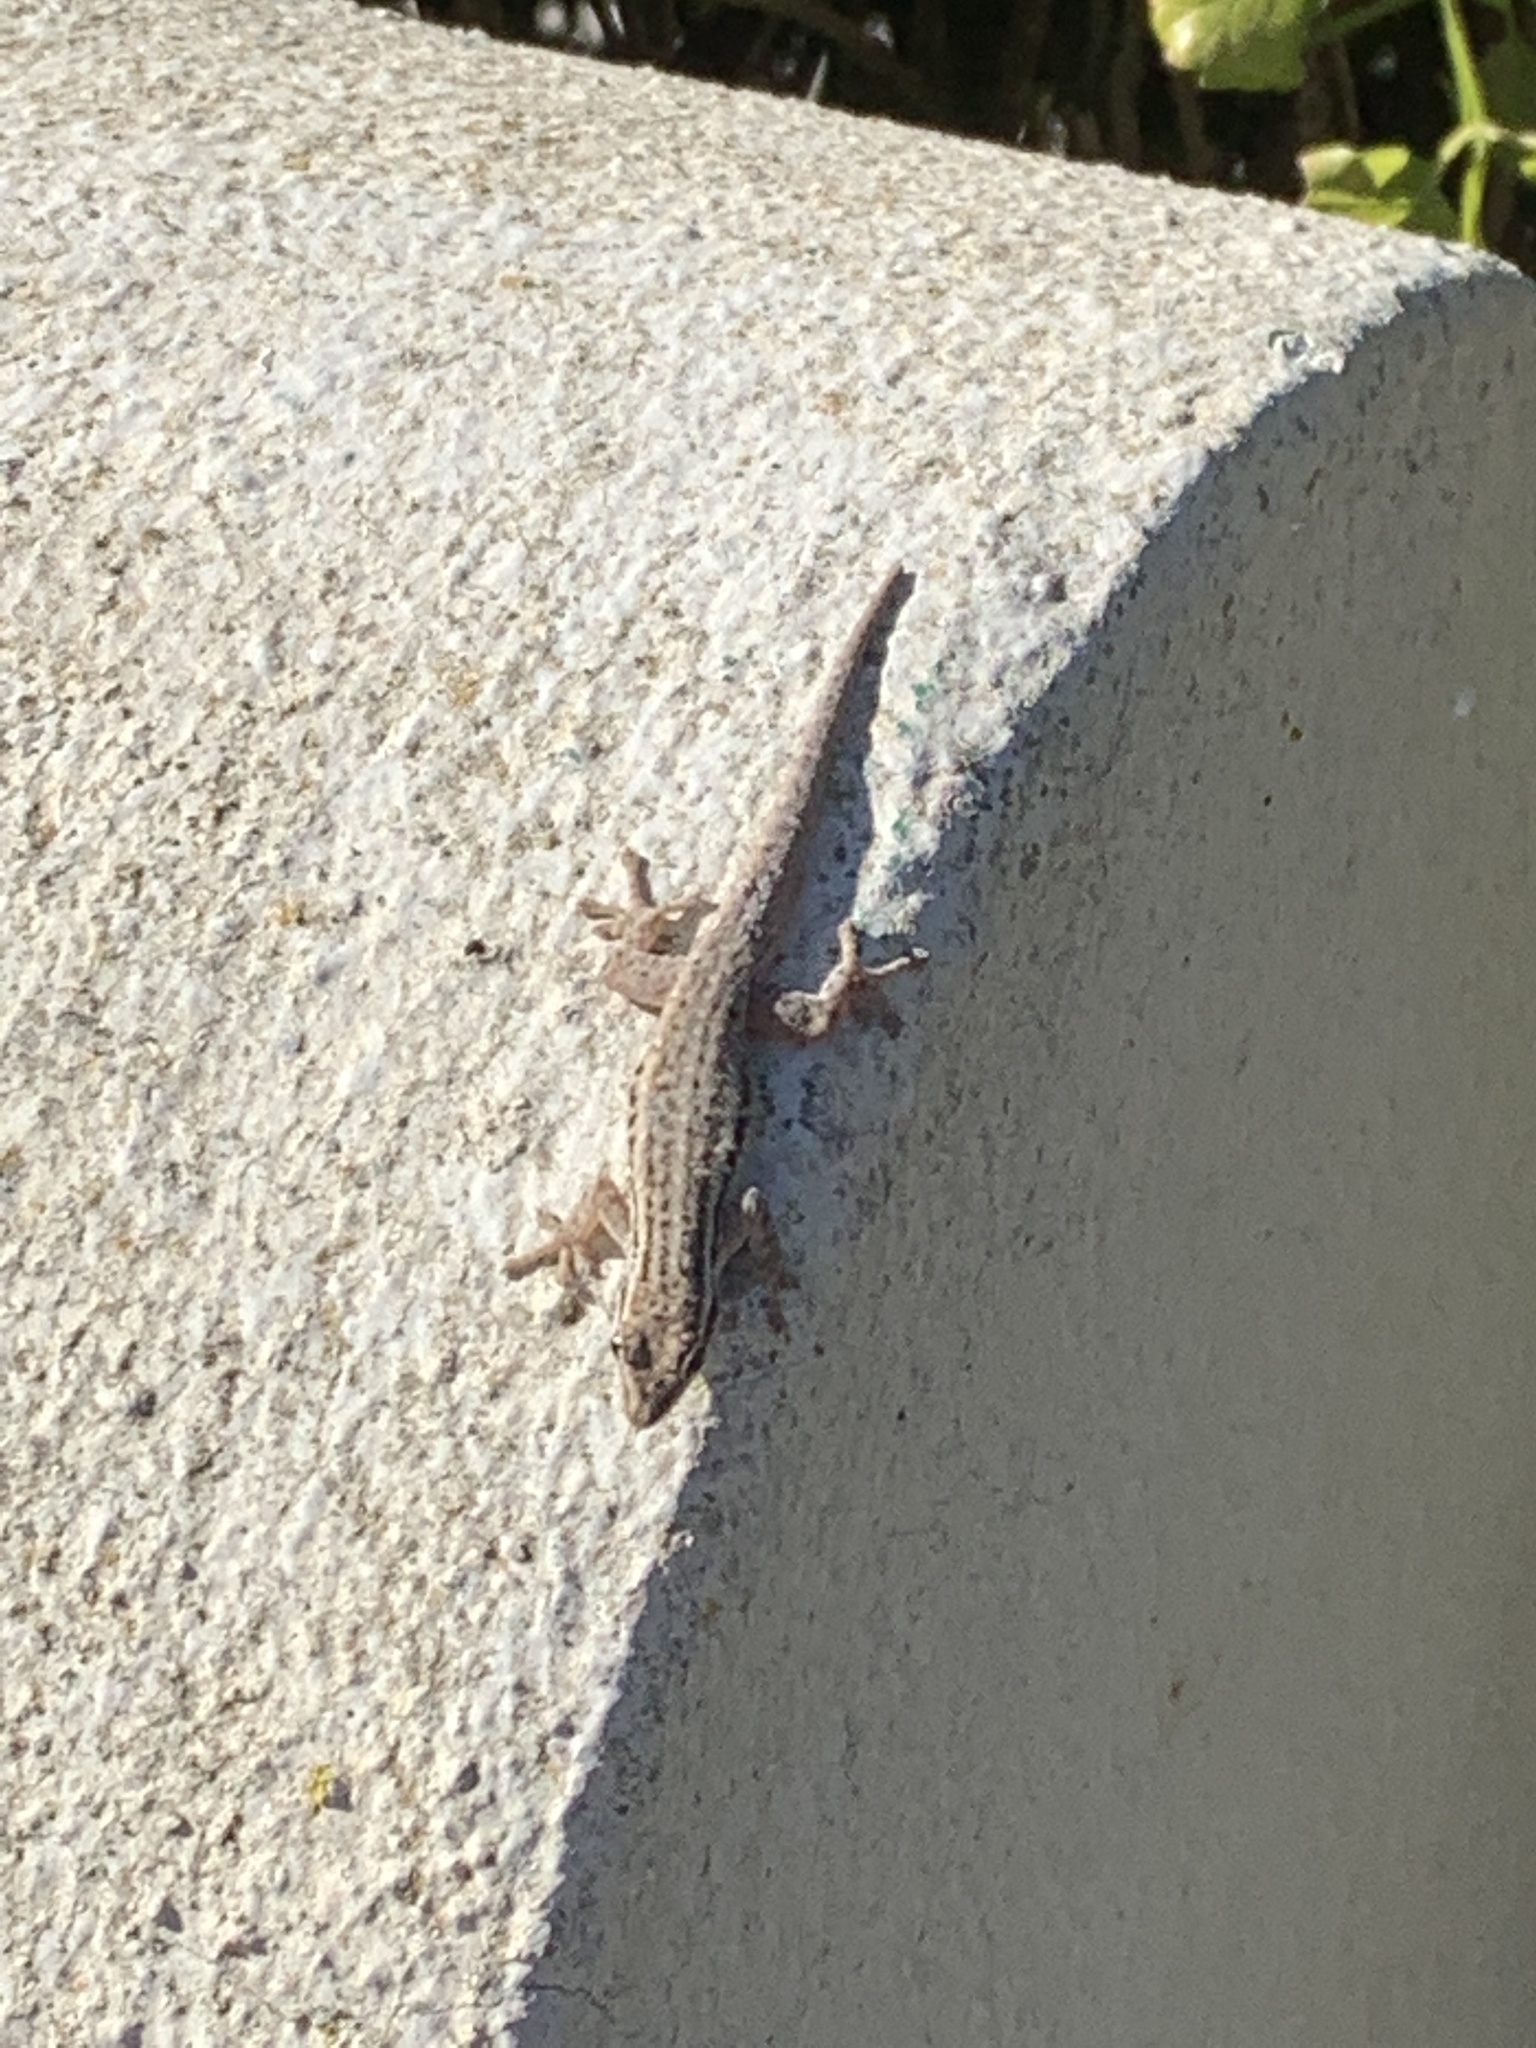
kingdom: Animalia
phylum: Chordata
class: Squamata
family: Gekkonidae
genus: Lygodactylus
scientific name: Lygodactylus capensis
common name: Cape dwarf gecko
